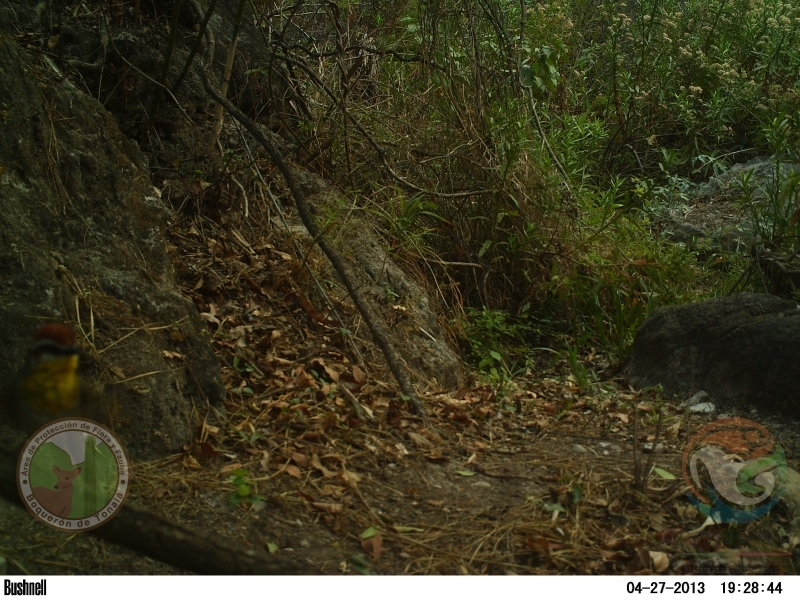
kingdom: Animalia
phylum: Chordata
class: Aves
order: Passeriformes
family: Parulidae
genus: Basileuterus
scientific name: Basileuterus rufifrons
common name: Rufous-capped warbler
